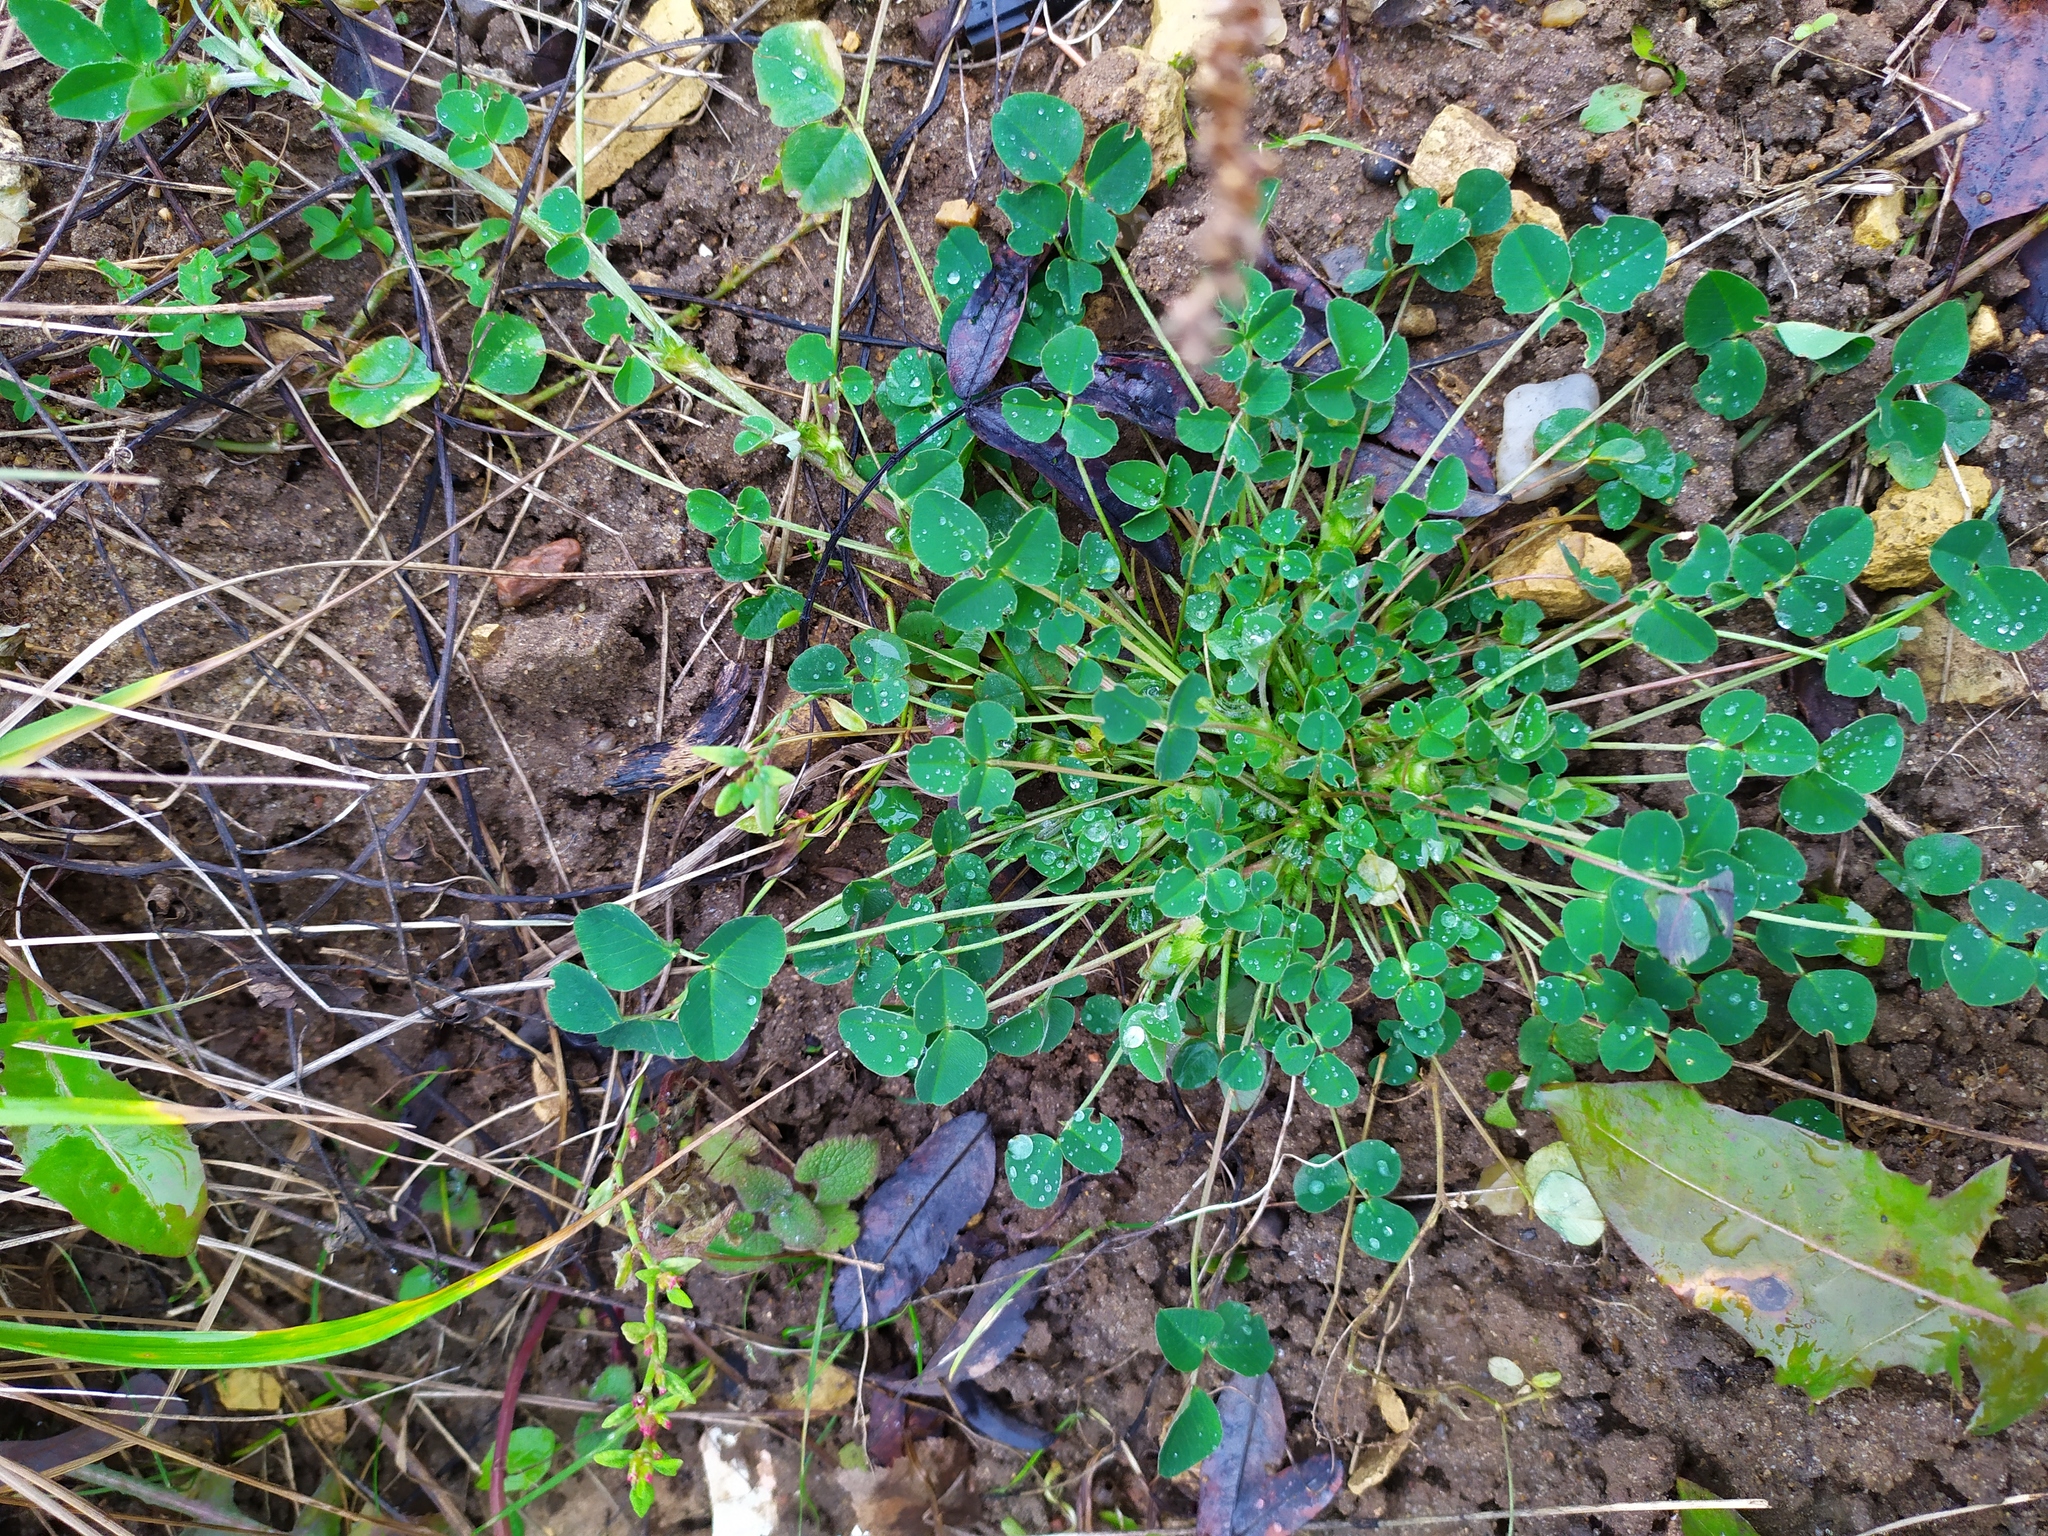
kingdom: Plantae
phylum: Tracheophyta
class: Magnoliopsida
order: Fabales
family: Fabaceae
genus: Medicago
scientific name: Medicago lupulina
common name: Black medick
